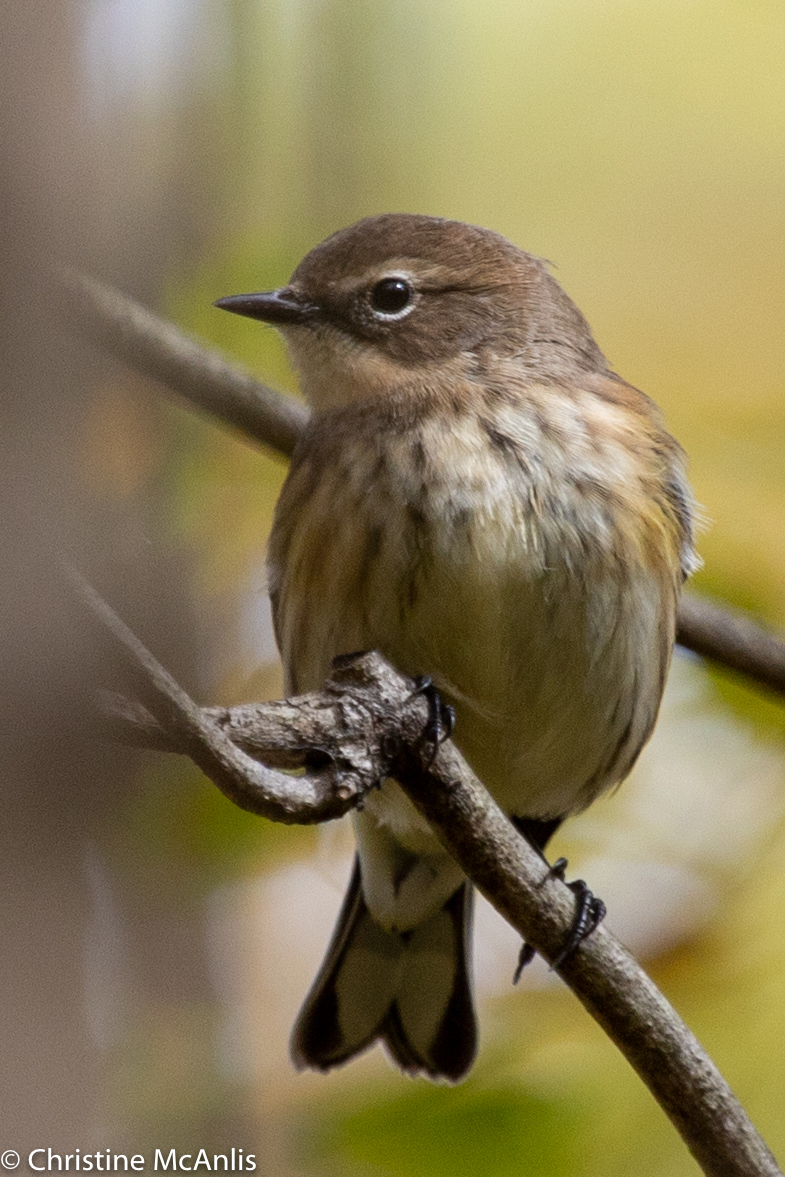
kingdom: Animalia
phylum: Chordata
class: Aves
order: Passeriformes
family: Parulidae
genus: Setophaga
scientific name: Setophaga coronata
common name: Myrtle warbler
